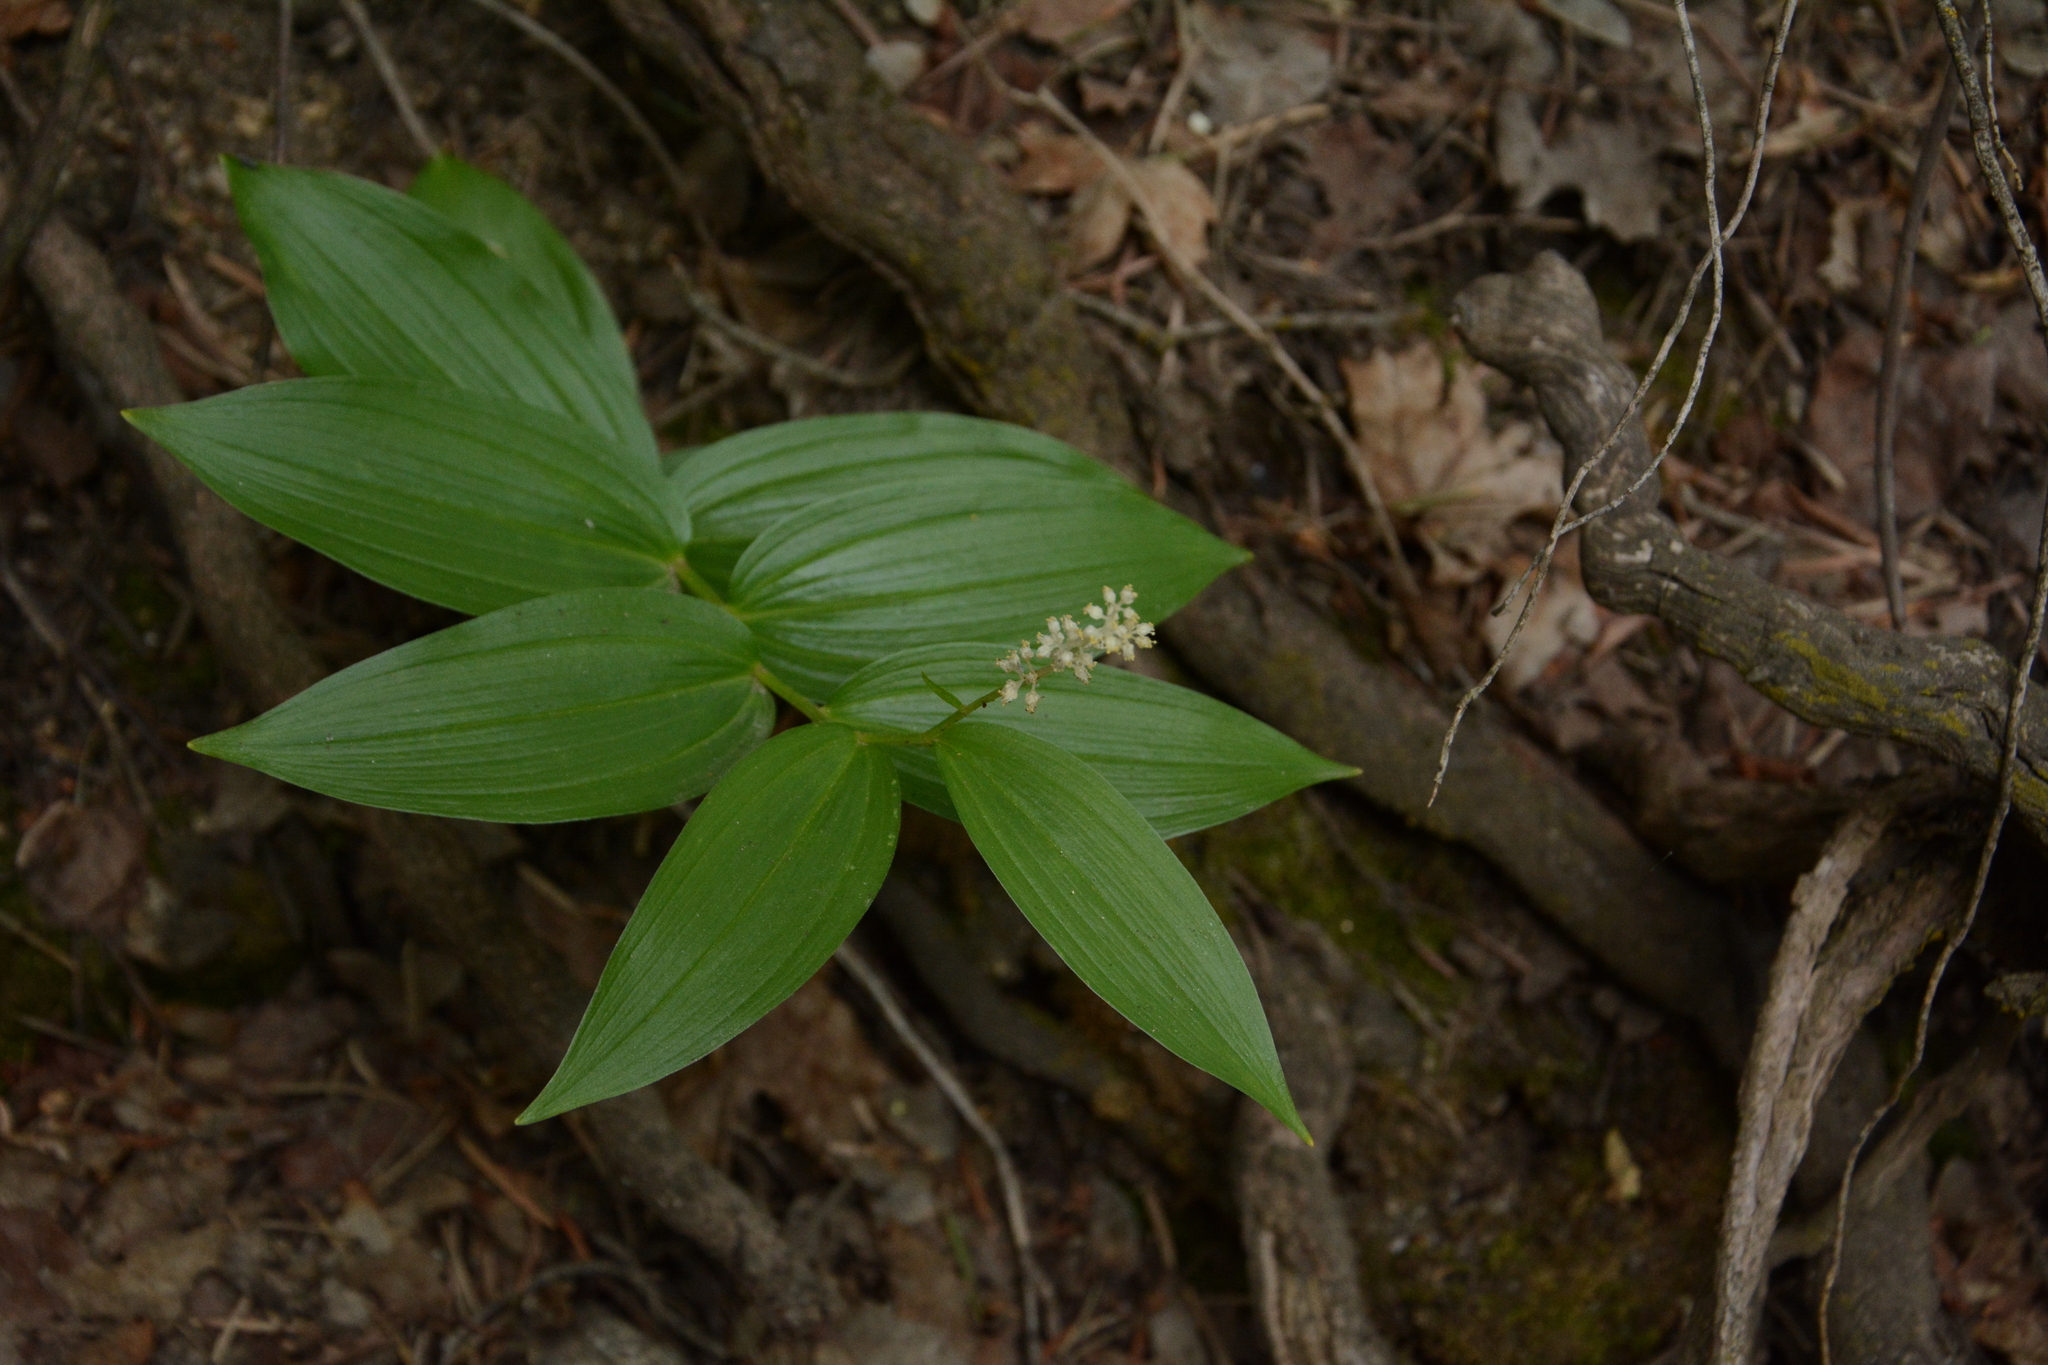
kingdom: Plantae
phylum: Tracheophyta
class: Liliopsida
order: Asparagales
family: Asparagaceae
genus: Maianthemum
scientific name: Maianthemum racemosum
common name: False spikenard
